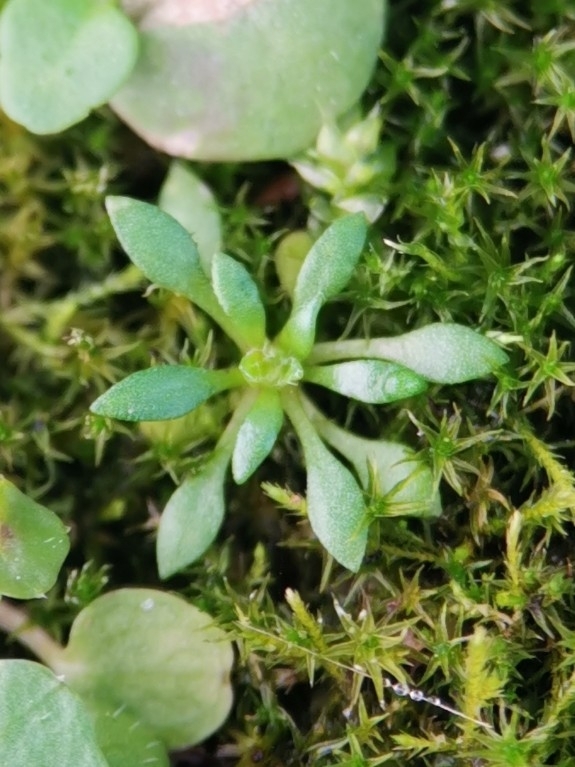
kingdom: Plantae
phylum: Tracheophyta
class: Magnoliopsida
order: Brassicales
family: Brassicaceae
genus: Draba
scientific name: Draba verna
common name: Spring draba
